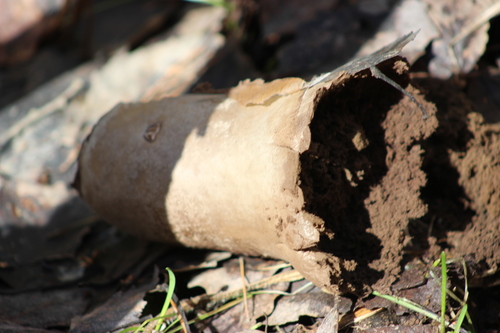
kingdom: Fungi
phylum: Basidiomycota
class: Agaricomycetes
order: Agaricales
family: Lycoperdaceae
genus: Lycoperdon
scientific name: Lycoperdon excipuliforme
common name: Pestle puffball
